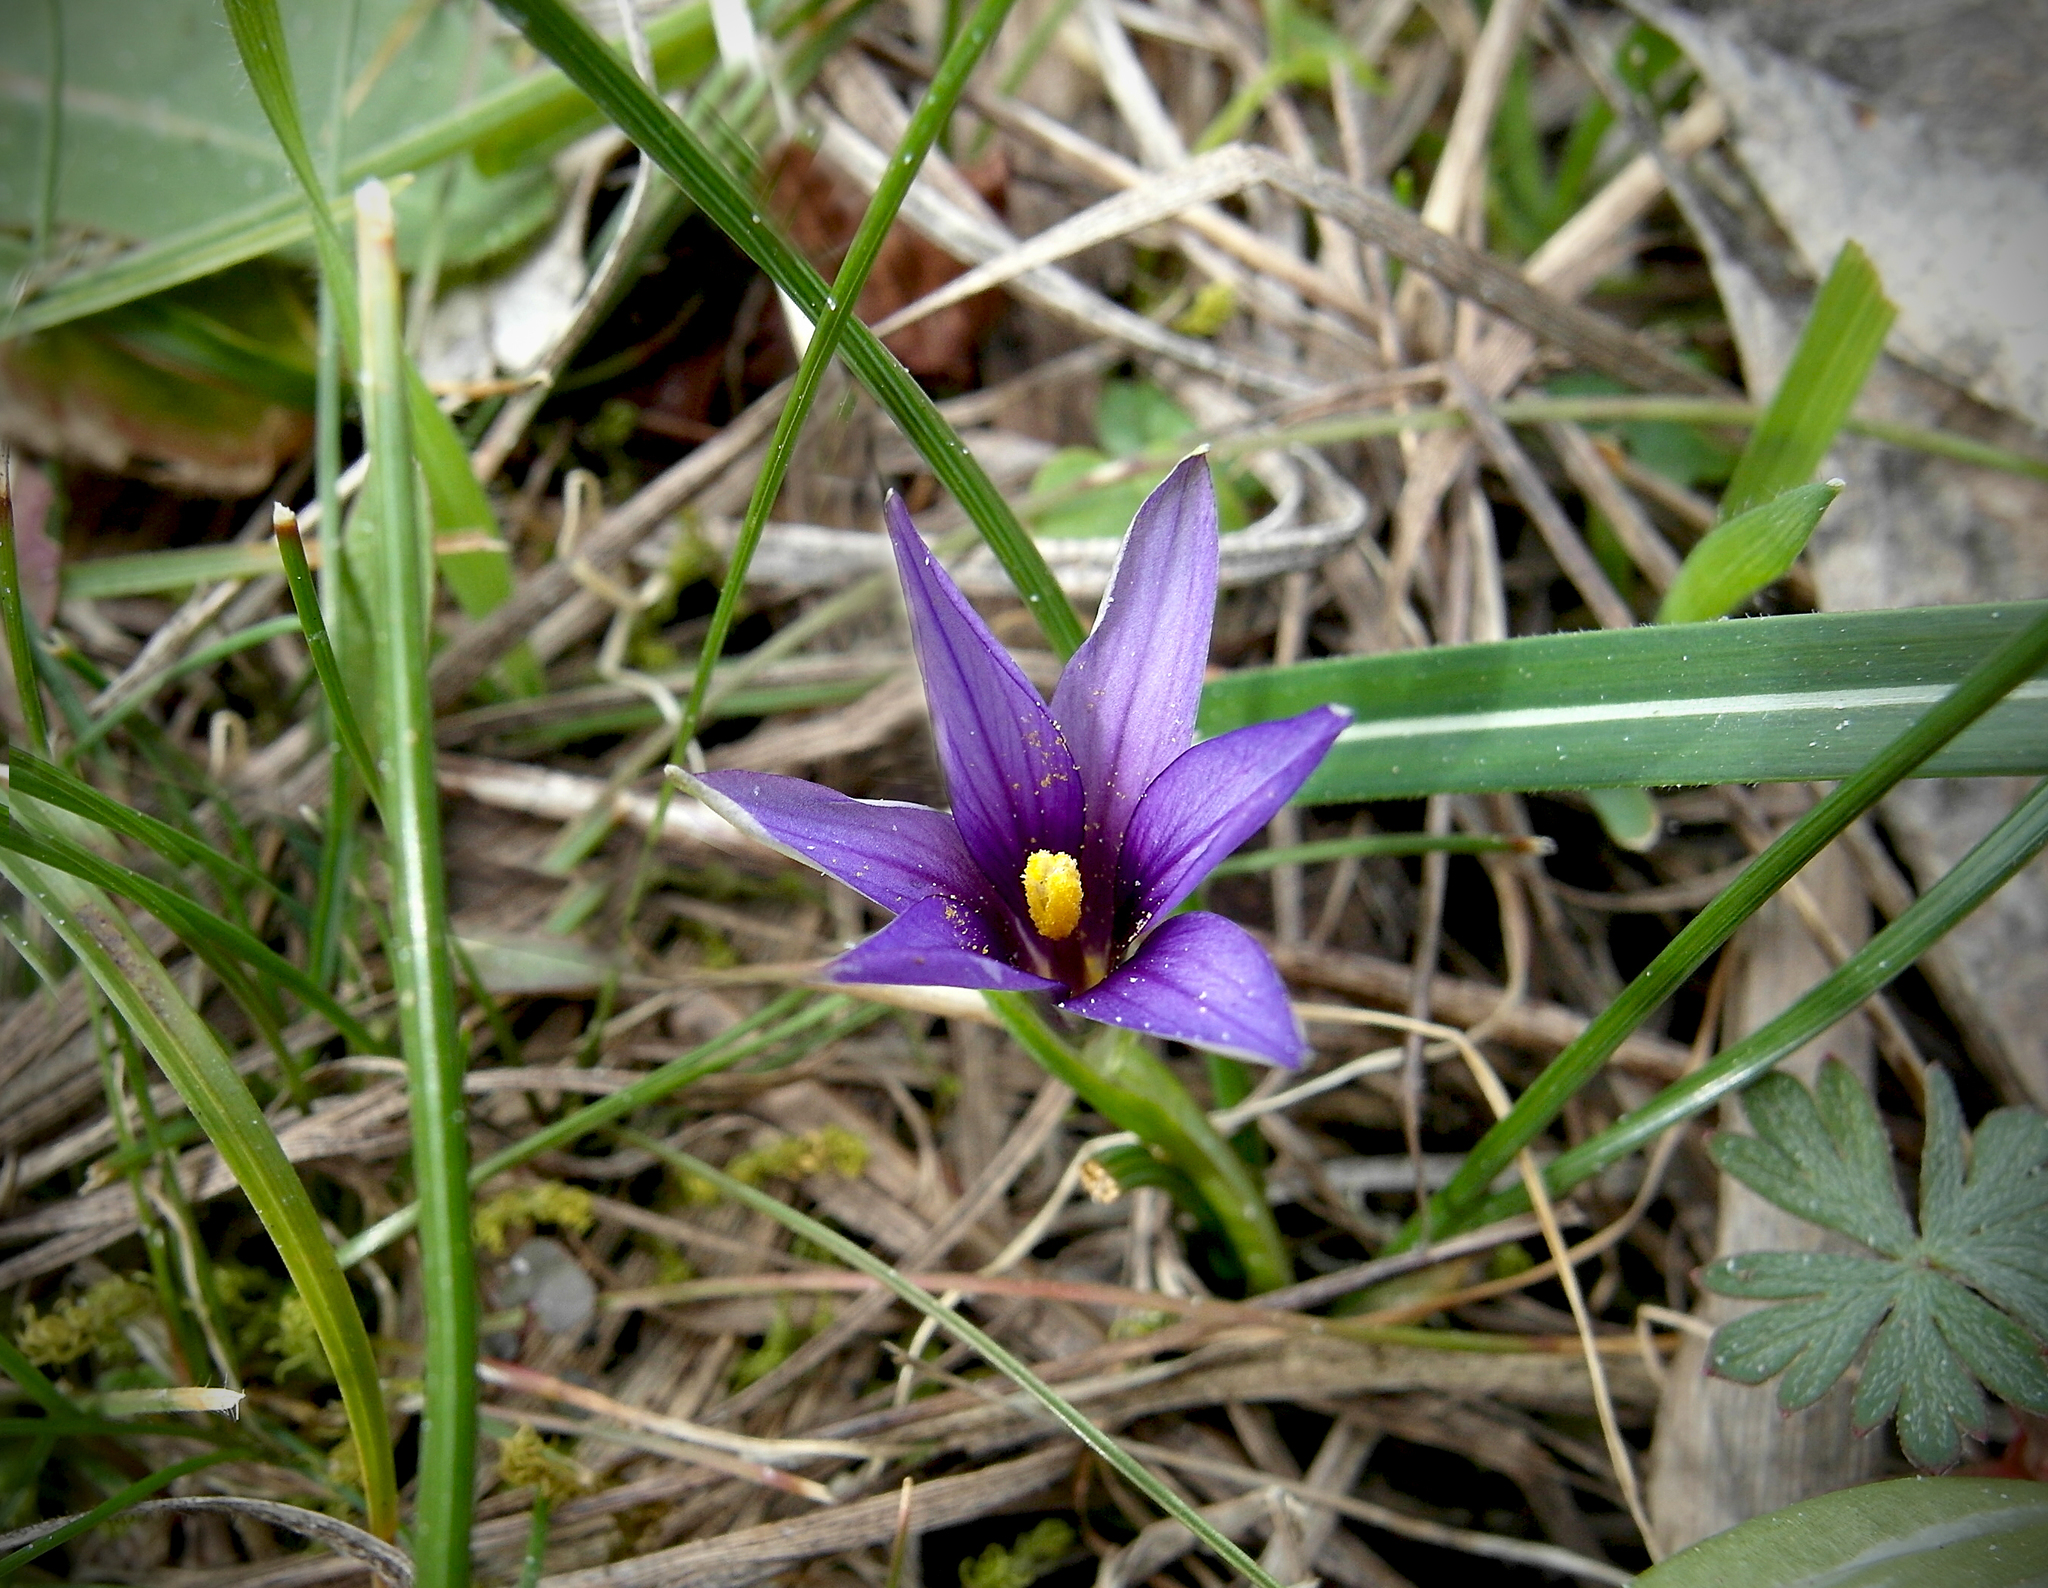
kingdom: Plantae
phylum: Tracheophyta
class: Liliopsida
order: Asparagales
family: Iridaceae
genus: Romulea
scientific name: Romulea linaresii
